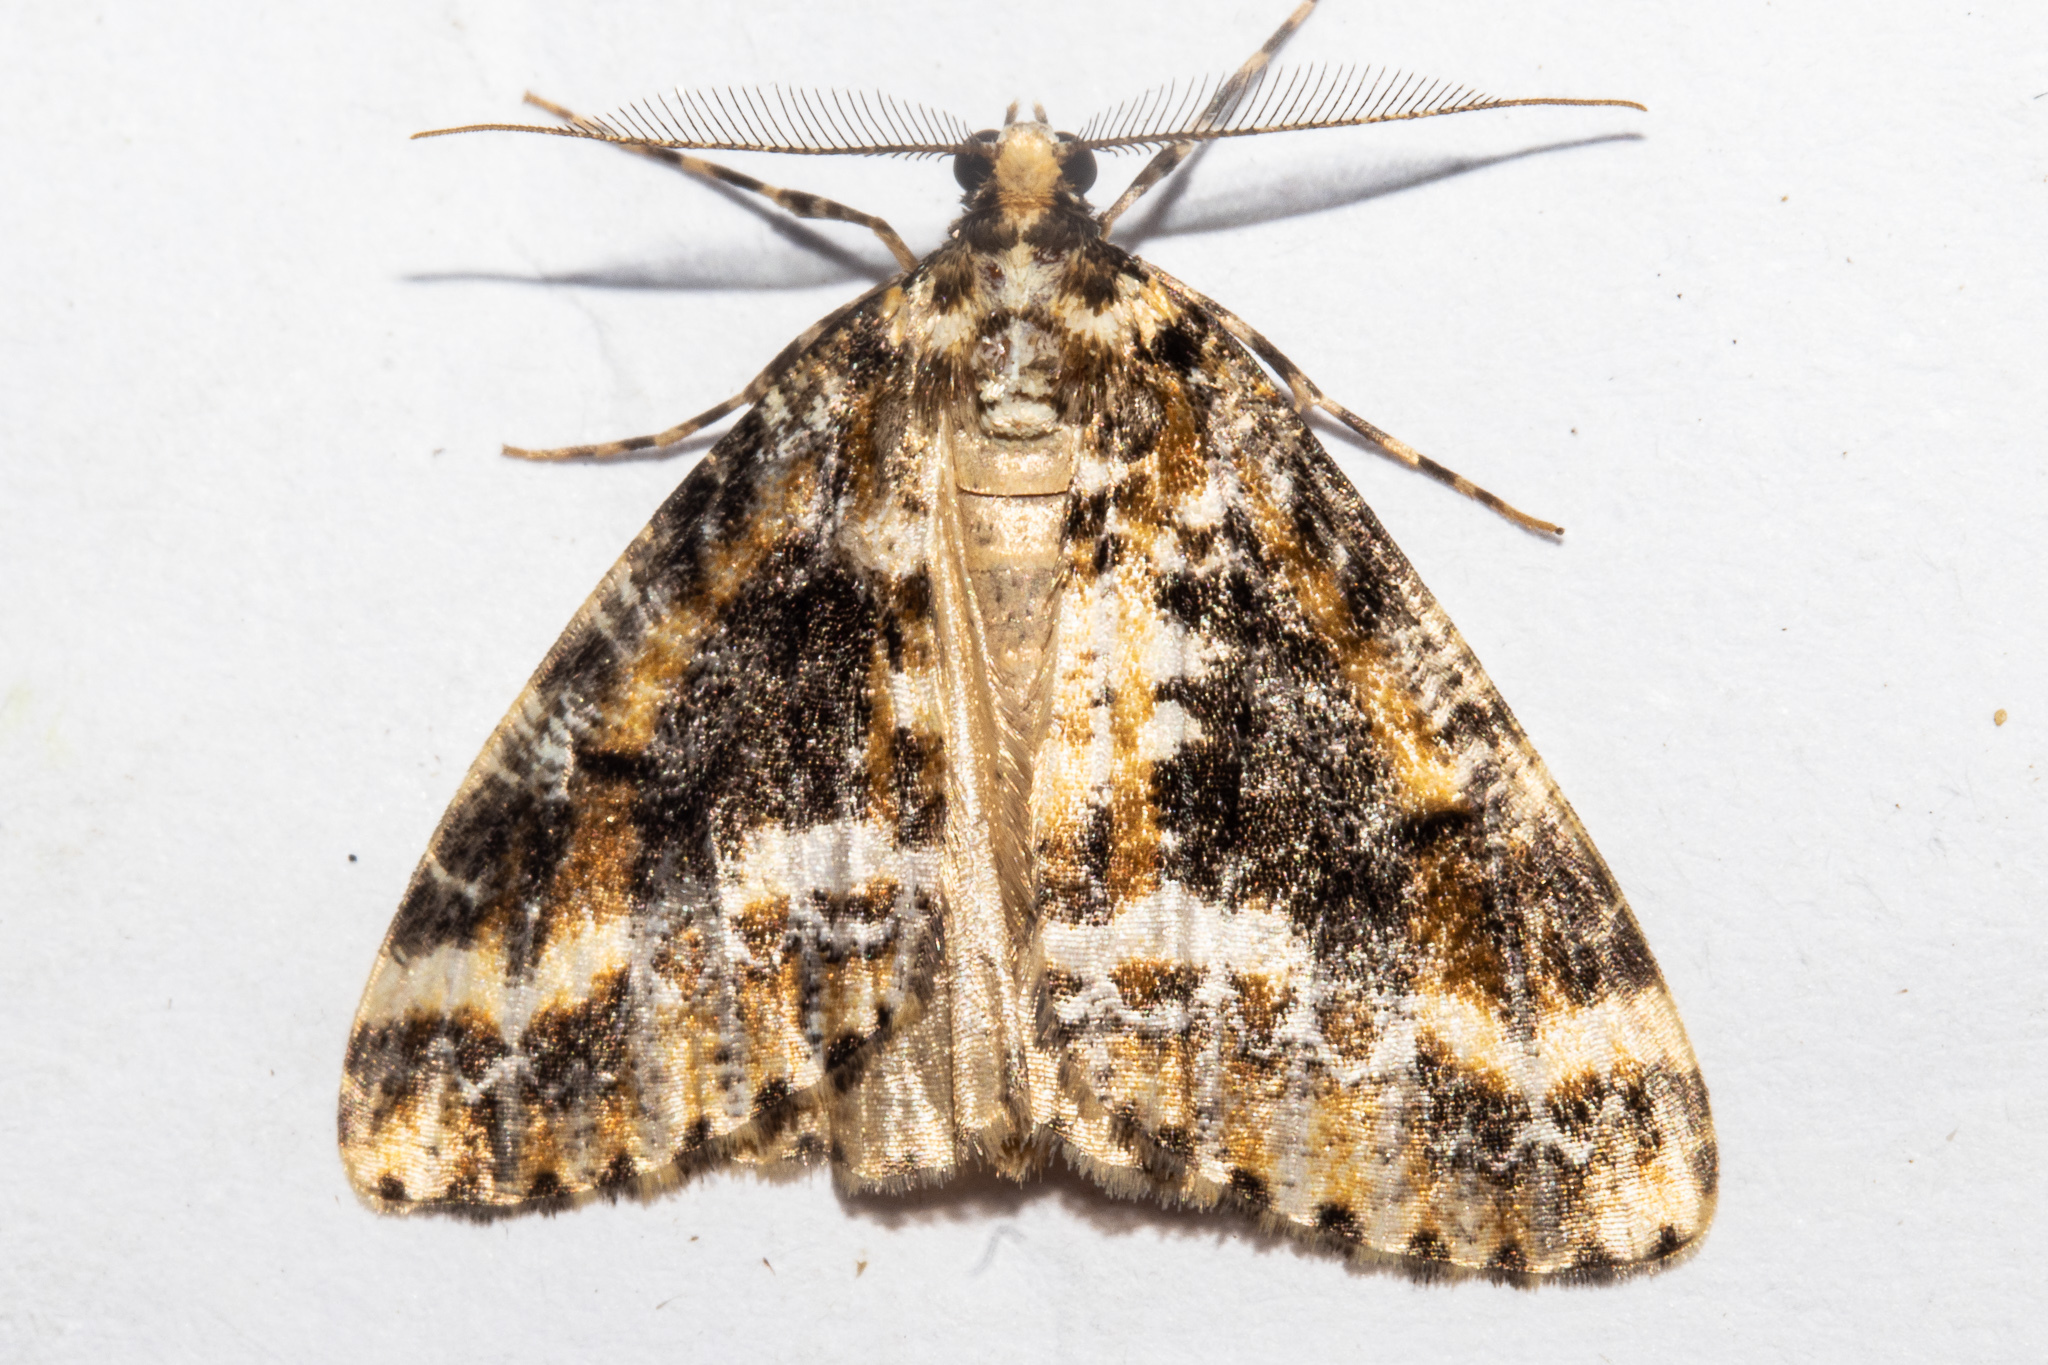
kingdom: Animalia
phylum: Arthropoda
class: Insecta
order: Lepidoptera
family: Geometridae
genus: Pseudocoremia
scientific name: Pseudocoremia leucelaea
